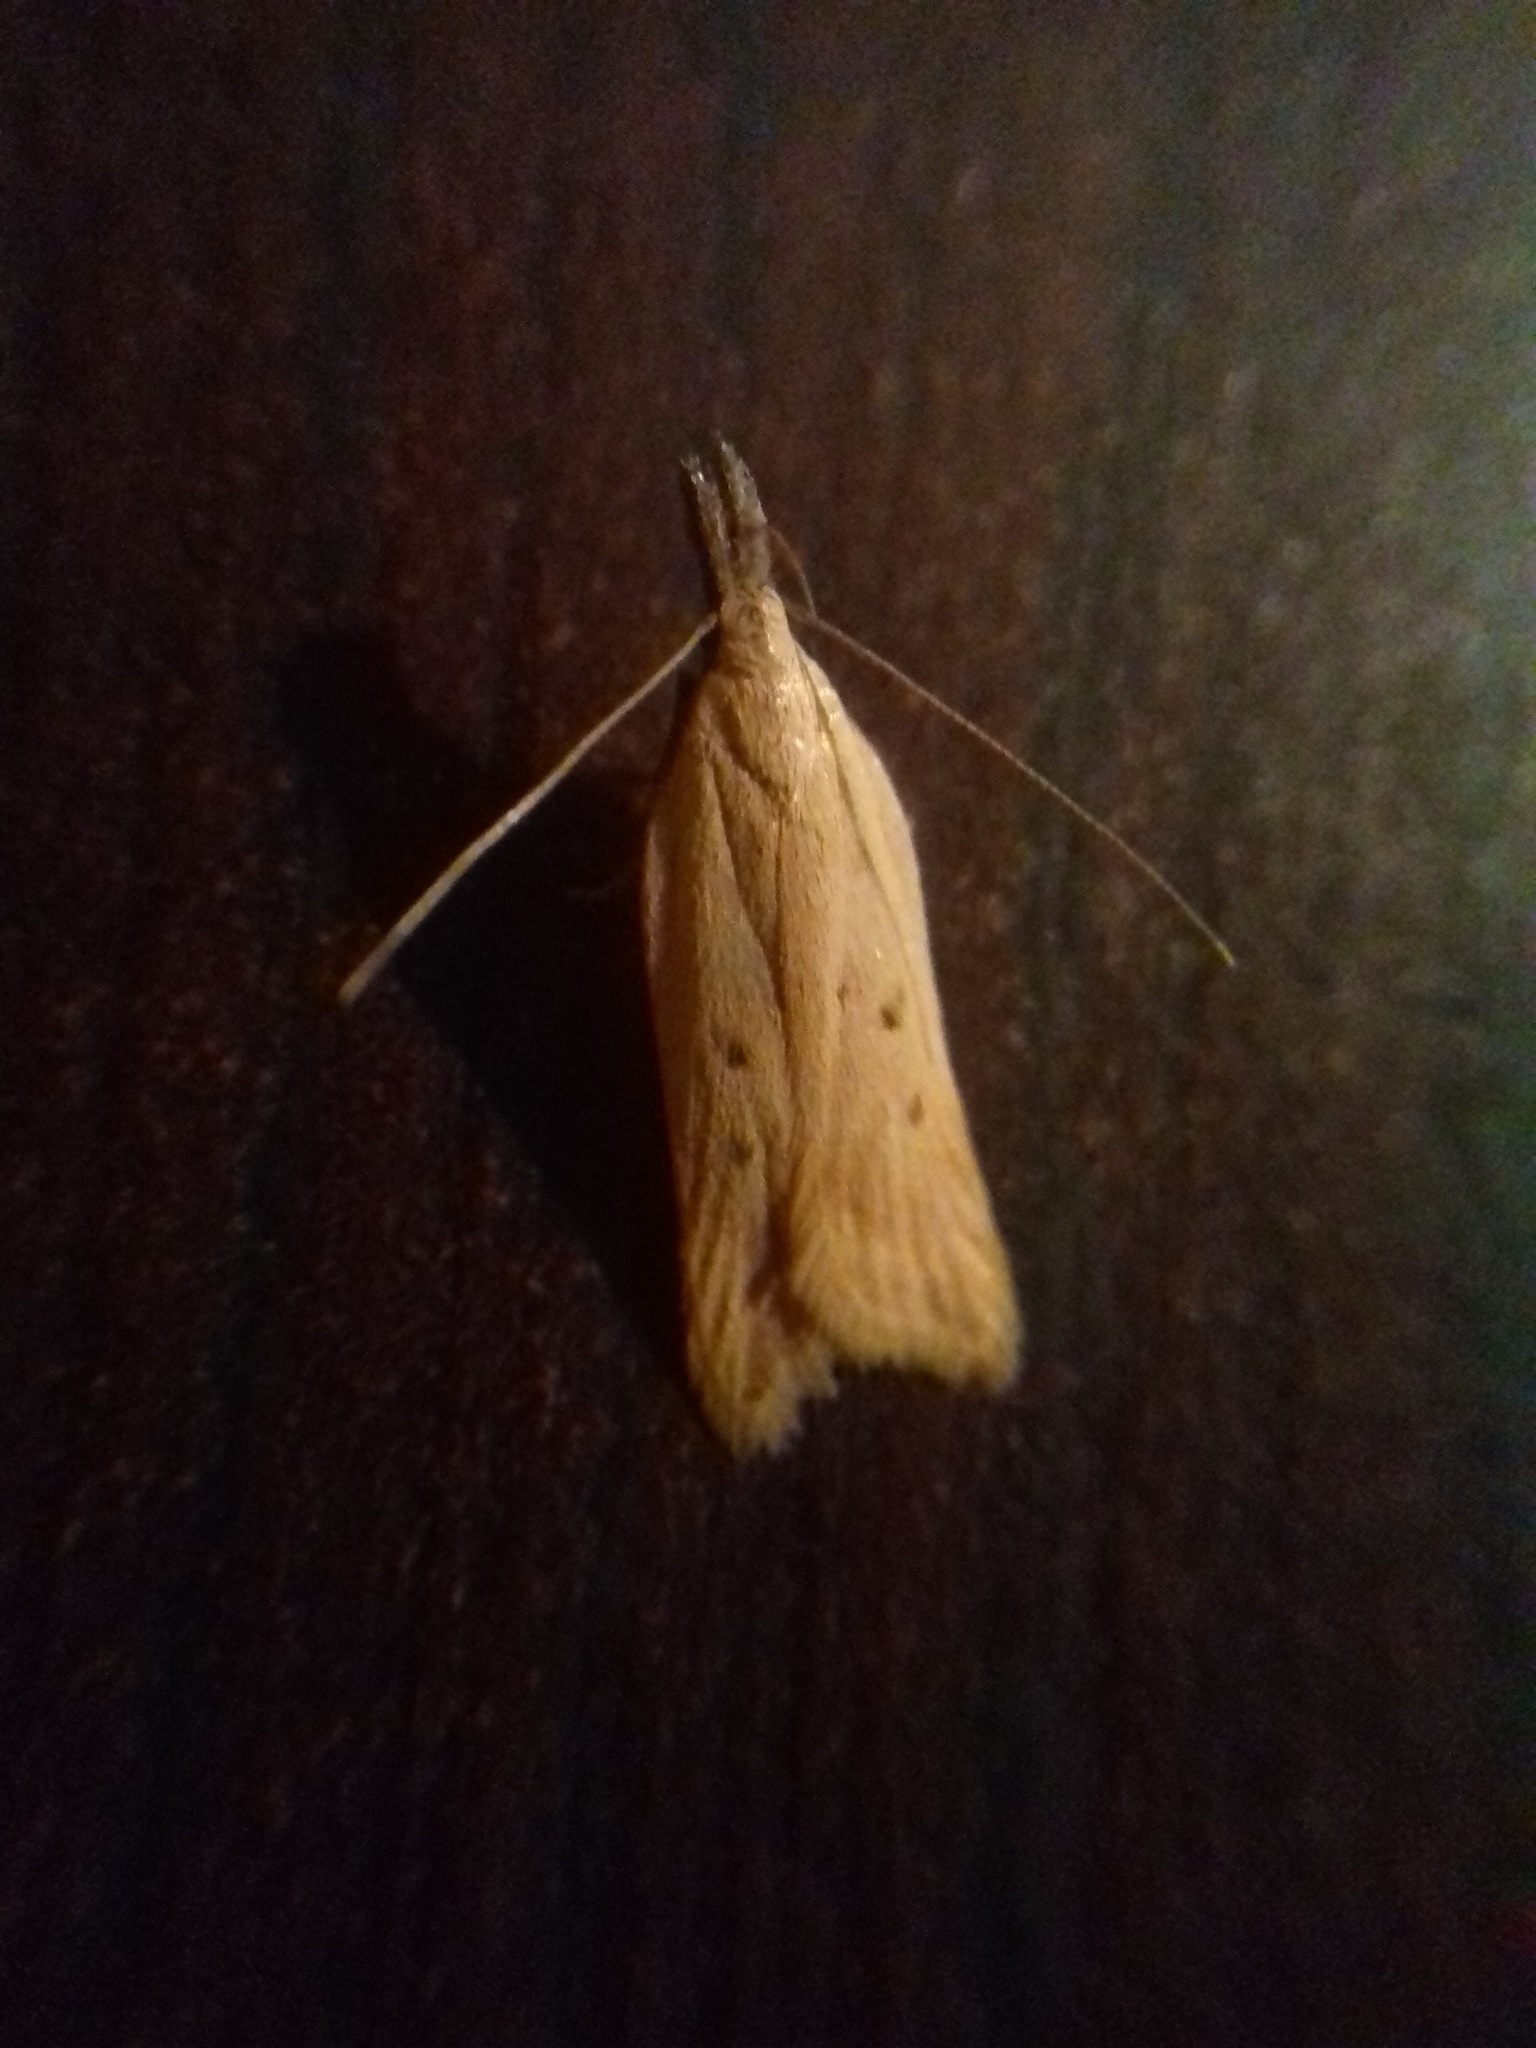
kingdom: Animalia
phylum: Arthropoda
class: Insecta
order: Lepidoptera
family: Gelechiidae
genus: Dichomeris
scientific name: Dichomeris limosellus
